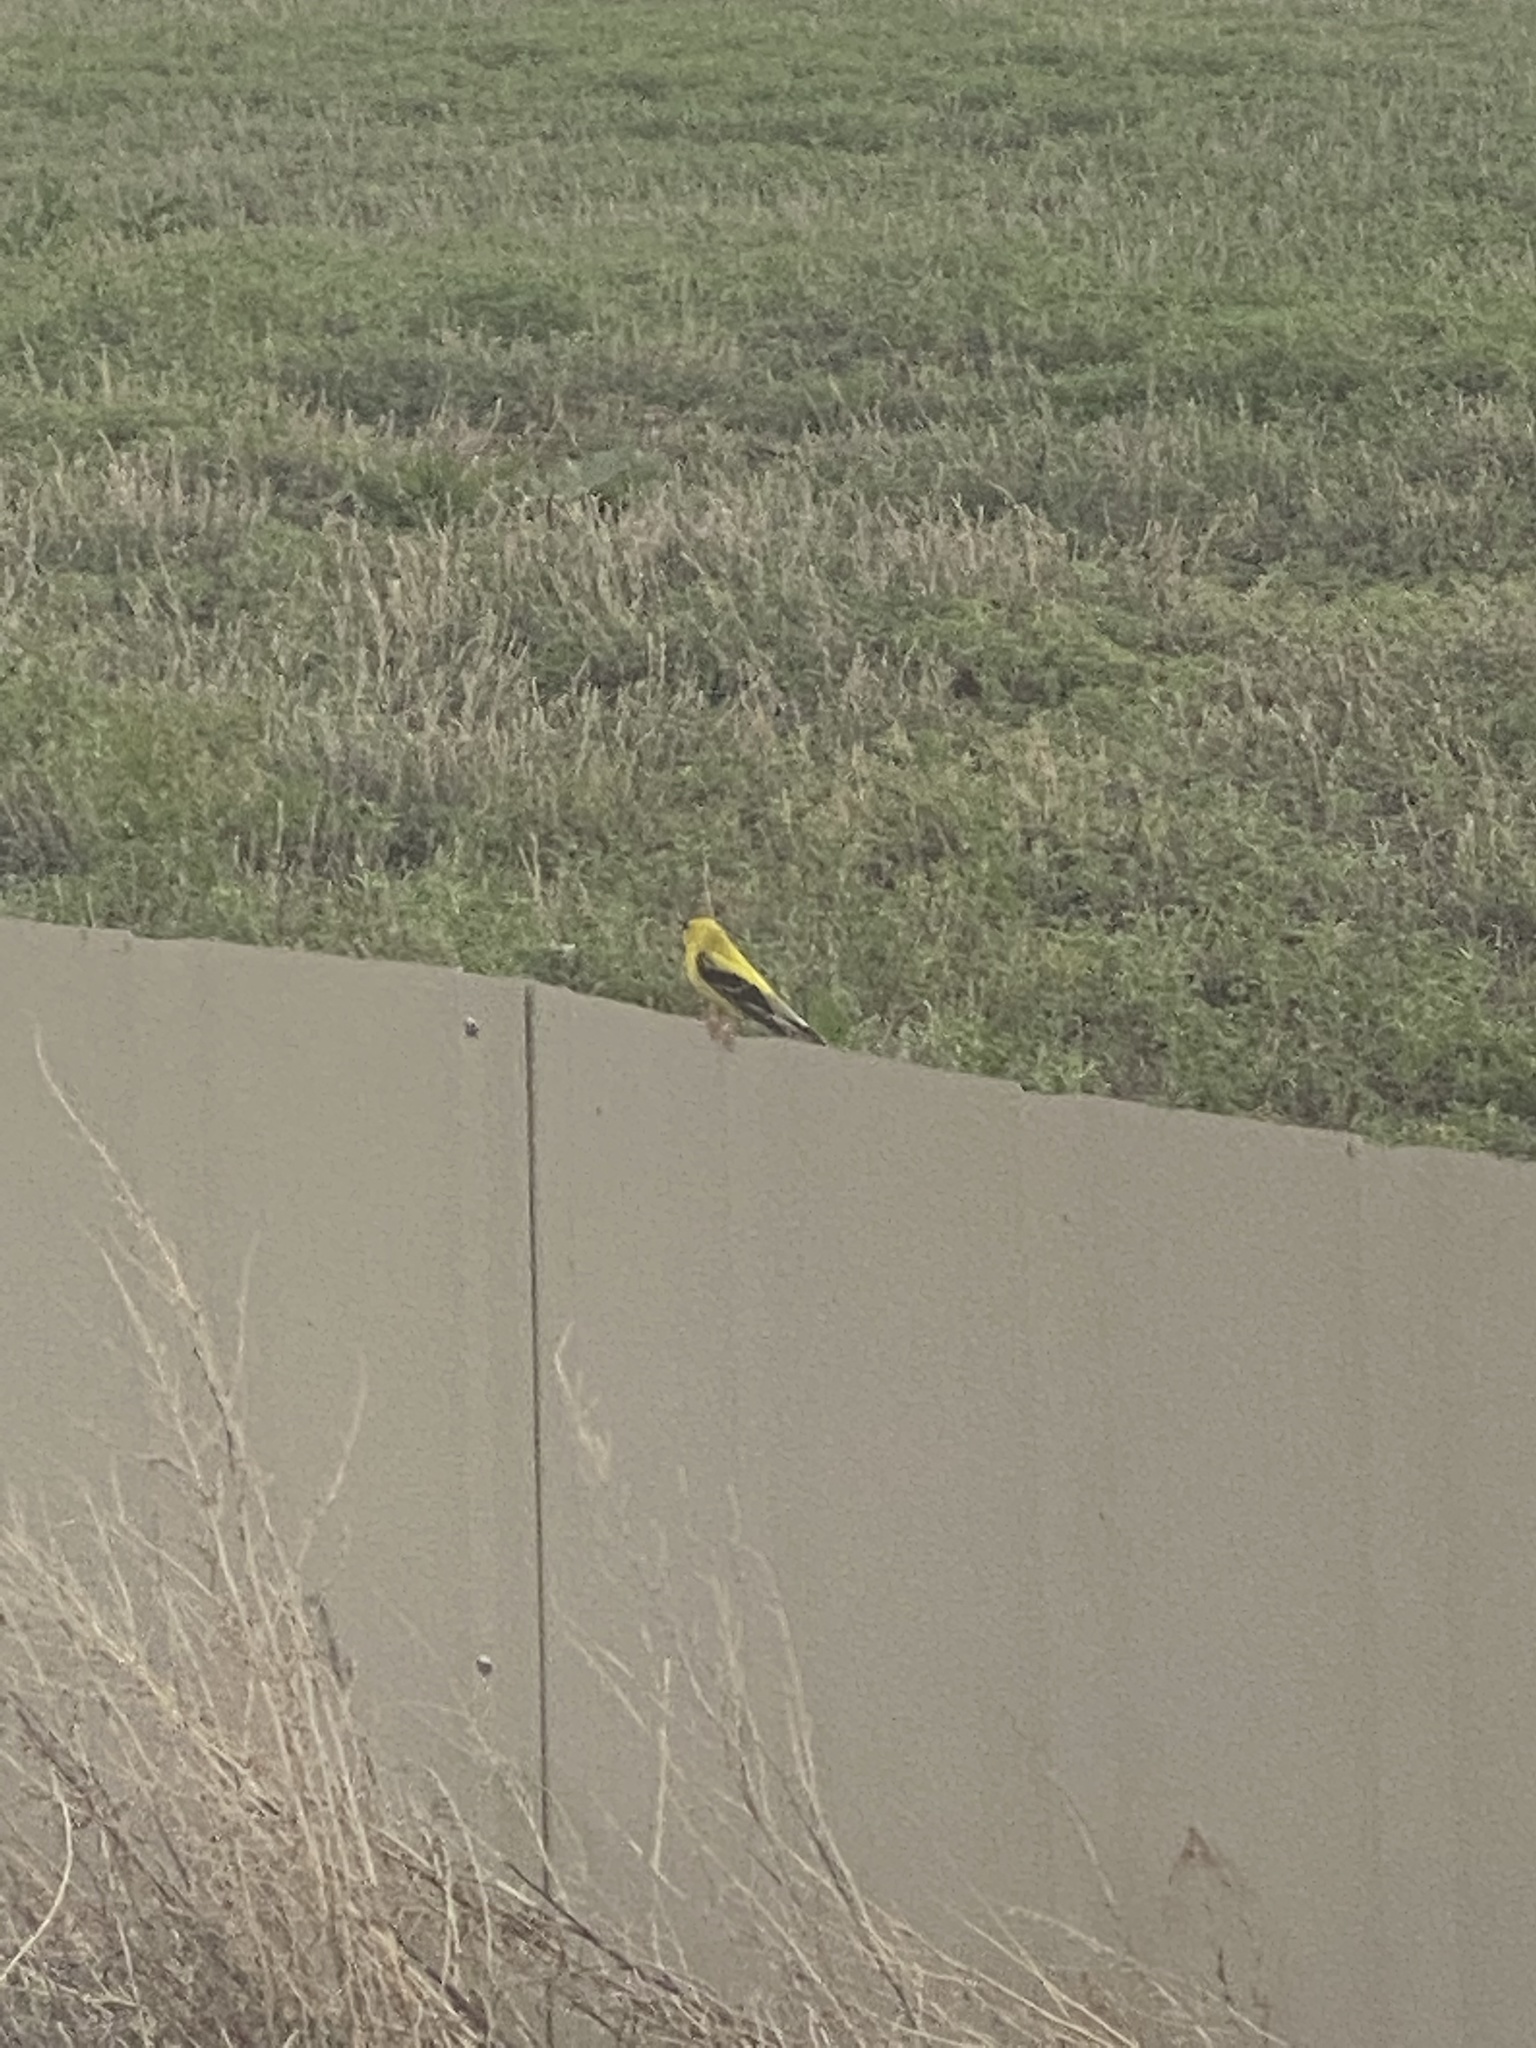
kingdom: Animalia
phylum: Chordata
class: Aves
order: Passeriformes
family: Fringillidae
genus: Spinus
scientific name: Spinus tristis
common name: American goldfinch
